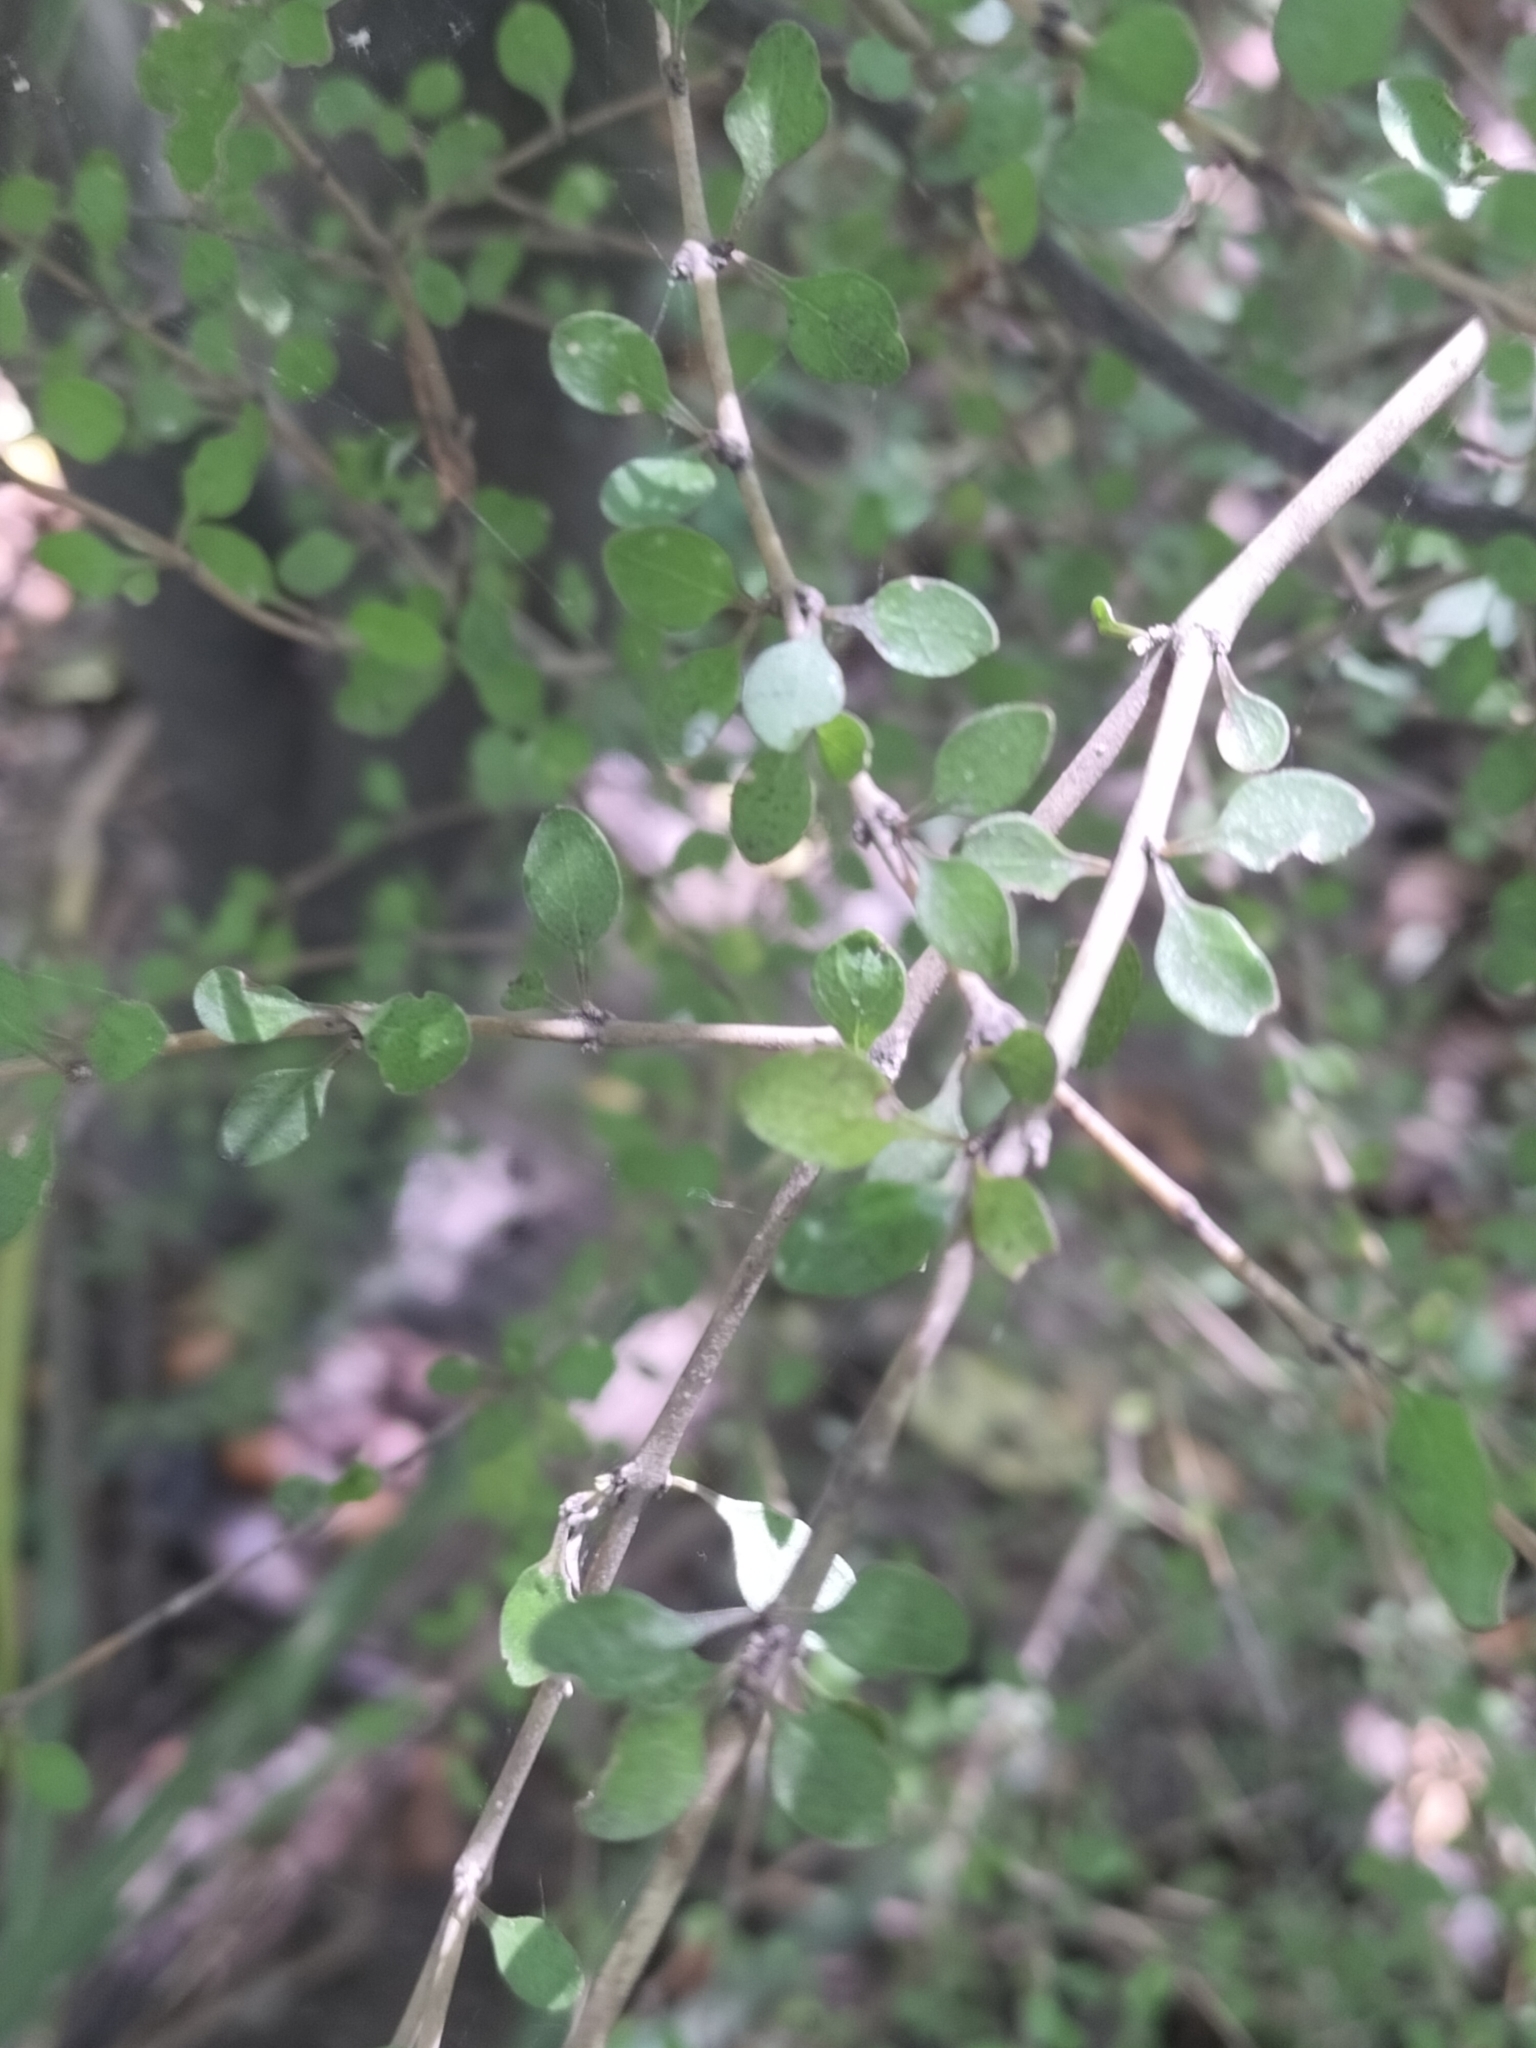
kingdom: Plantae
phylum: Tracheophyta
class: Magnoliopsida
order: Gentianales
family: Rubiaceae
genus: Coprosma
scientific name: Coprosma virescens
